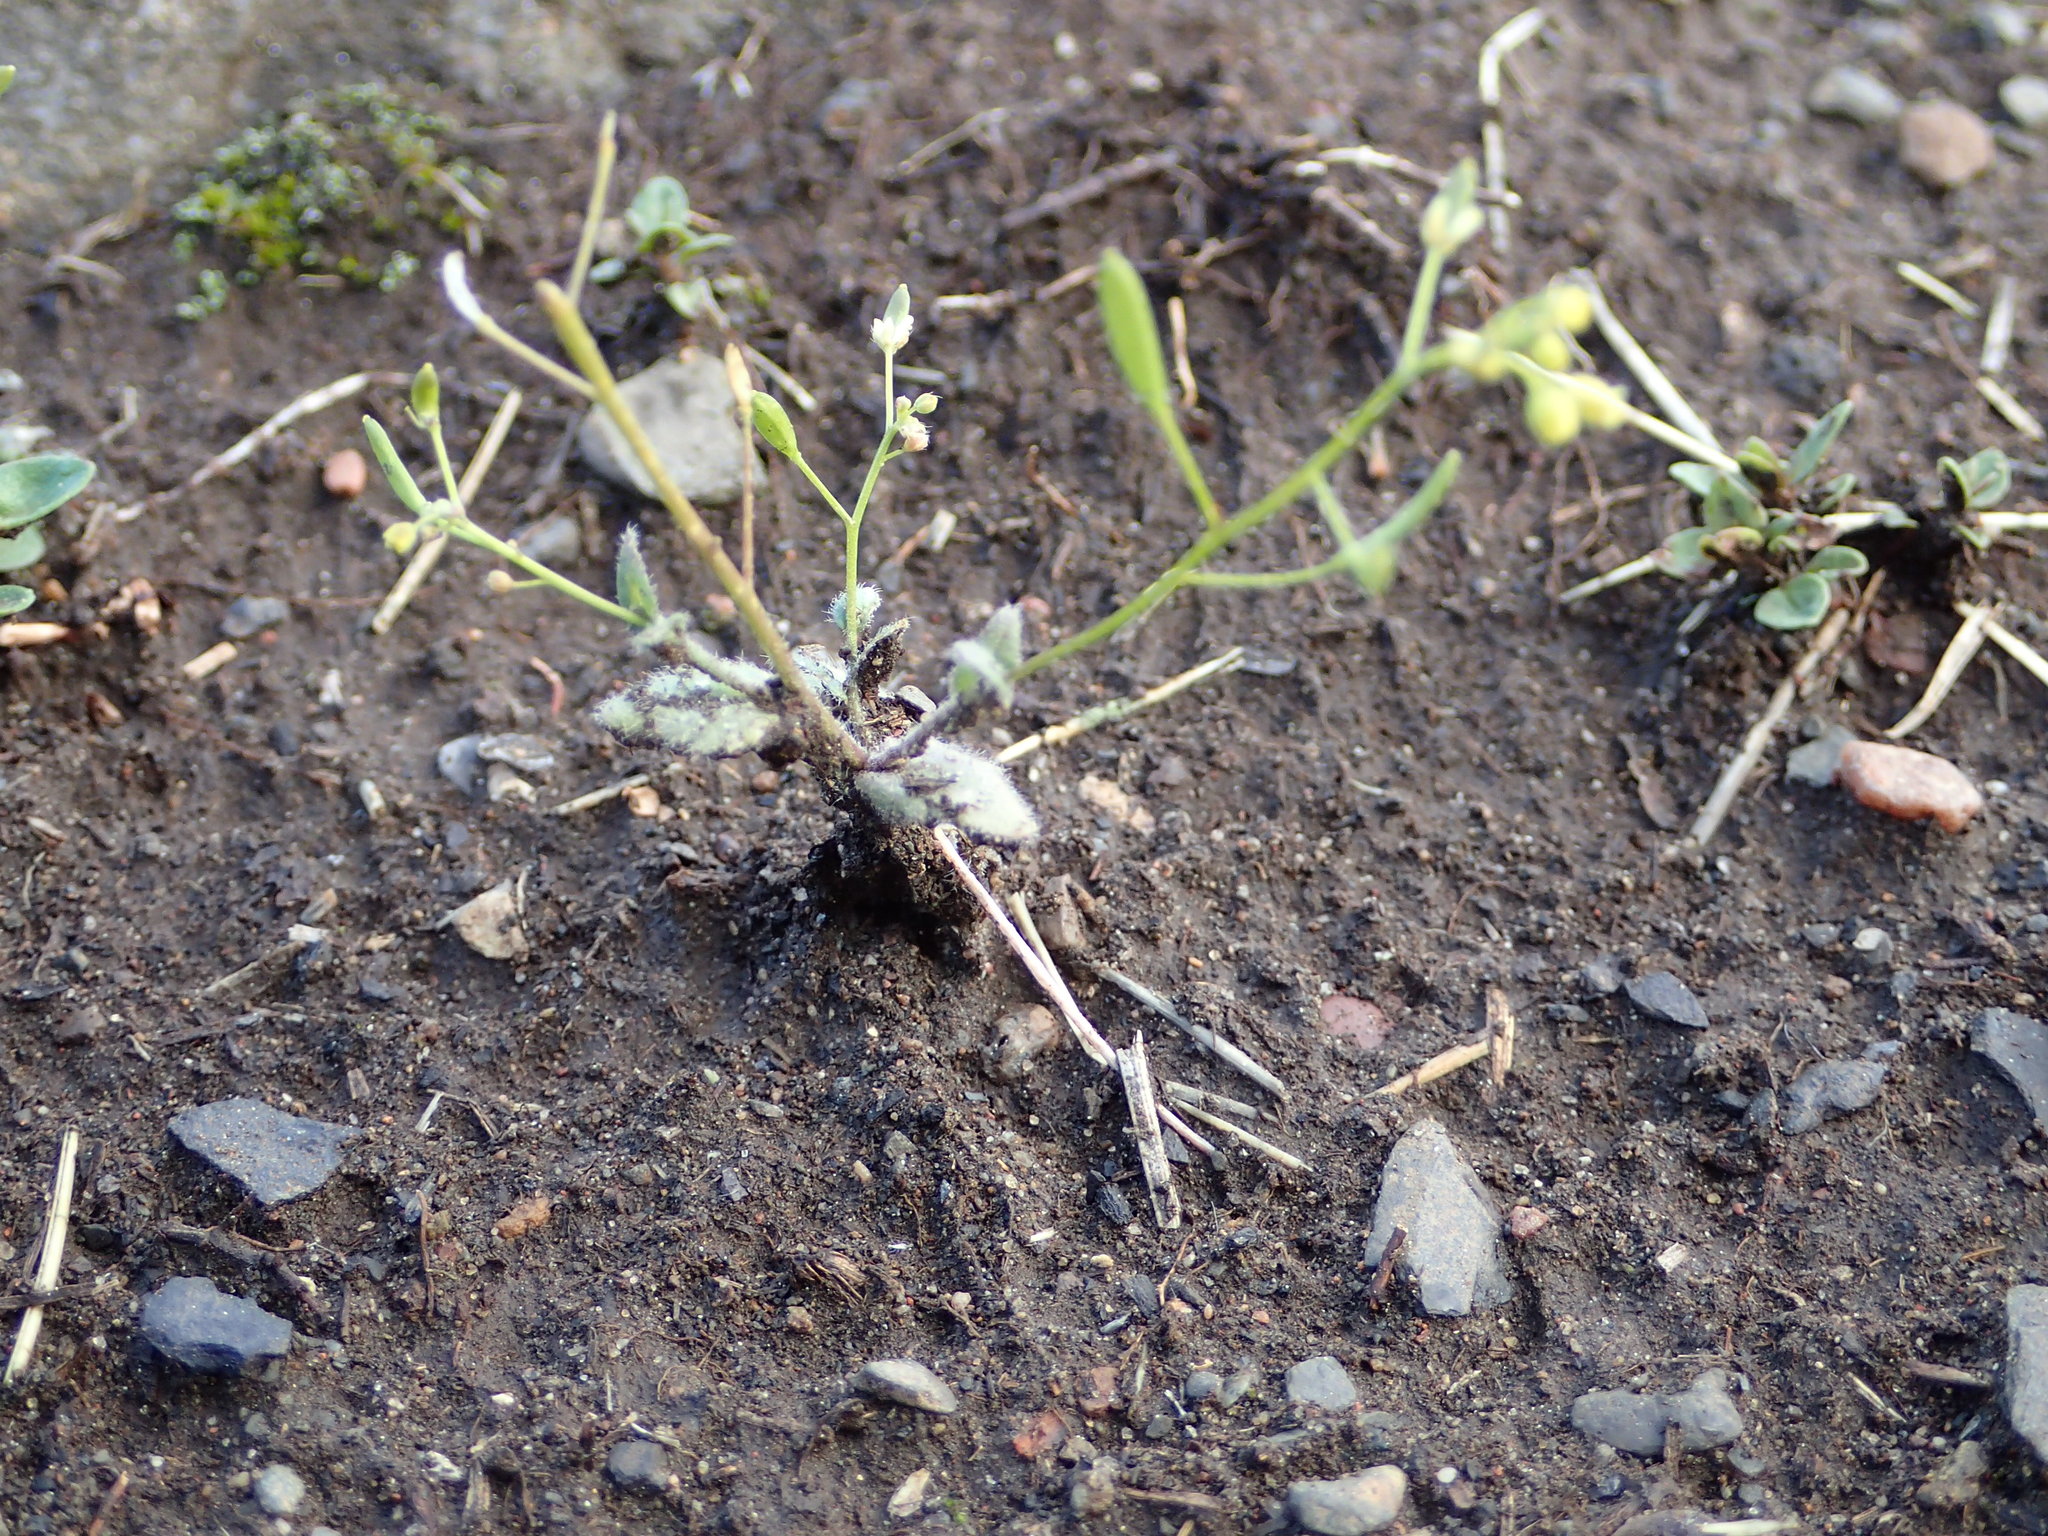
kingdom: Plantae
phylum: Tracheophyta
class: Magnoliopsida
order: Brassicales
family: Brassicaceae
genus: Draba
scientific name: Draba nemorosa
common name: Wood whitlow-grass
